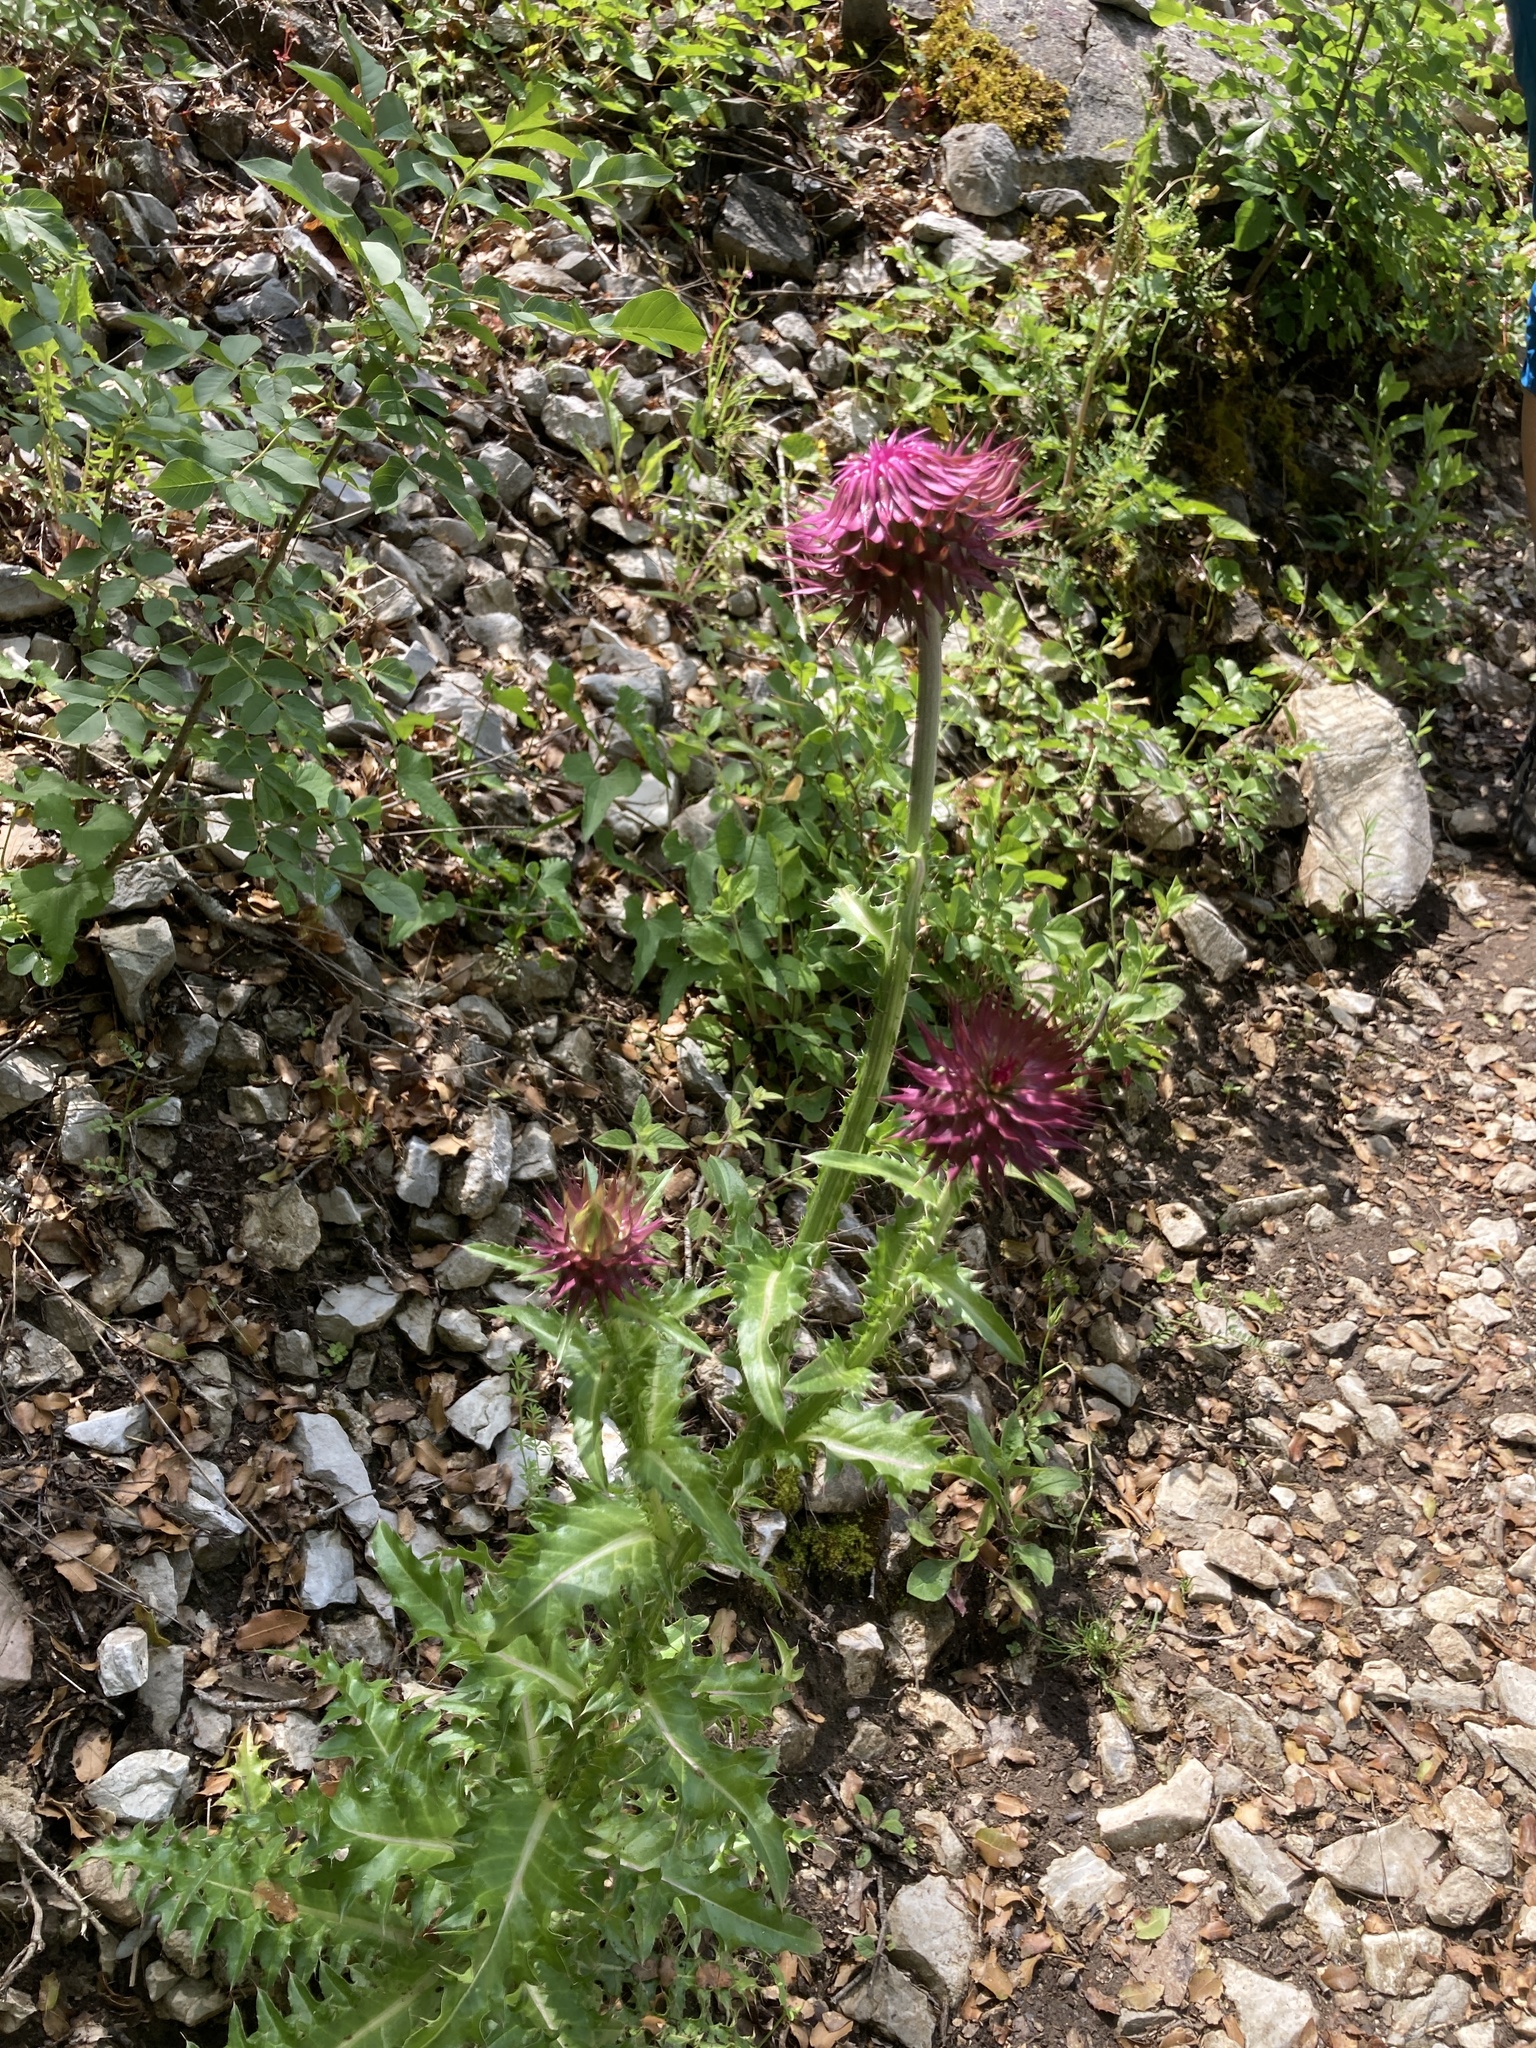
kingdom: Plantae
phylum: Tracheophyta
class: Magnoliopsida
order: Asterales
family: Asteraceae
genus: Carduus
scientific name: Carduus nutans
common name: Musk thistle
